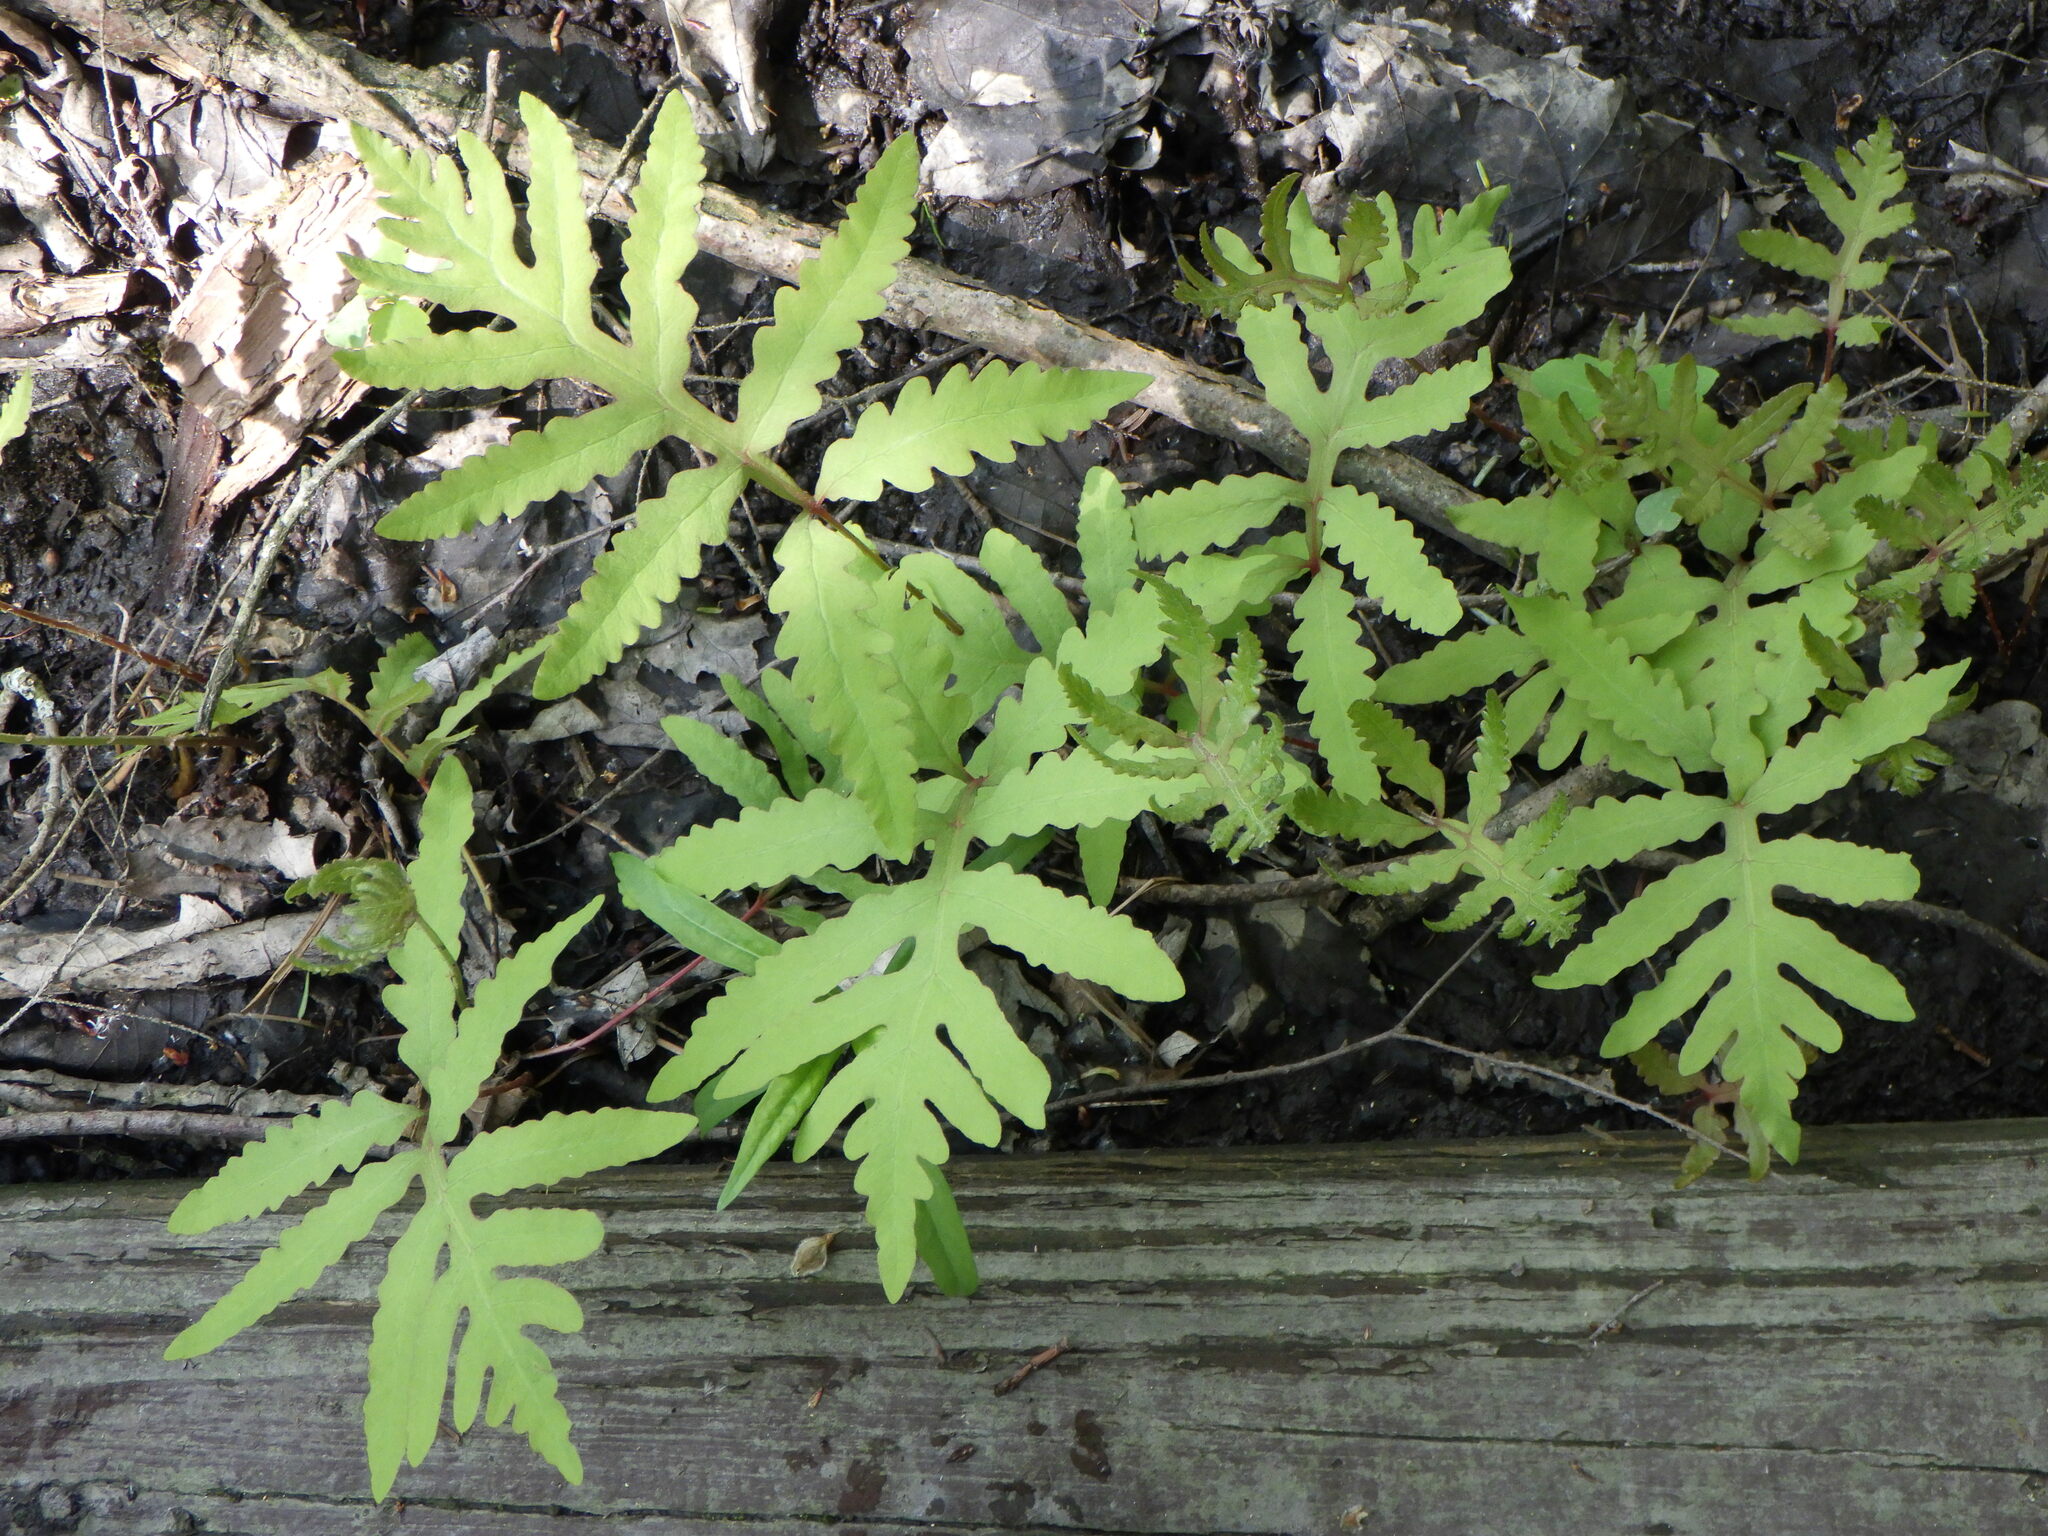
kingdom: Plantae
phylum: Tracheophyta
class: Polypodiopsida
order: Polypodiales
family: Onocleaceae
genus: Onoclea
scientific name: Onoclea sensibilis
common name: Sensitive fern
